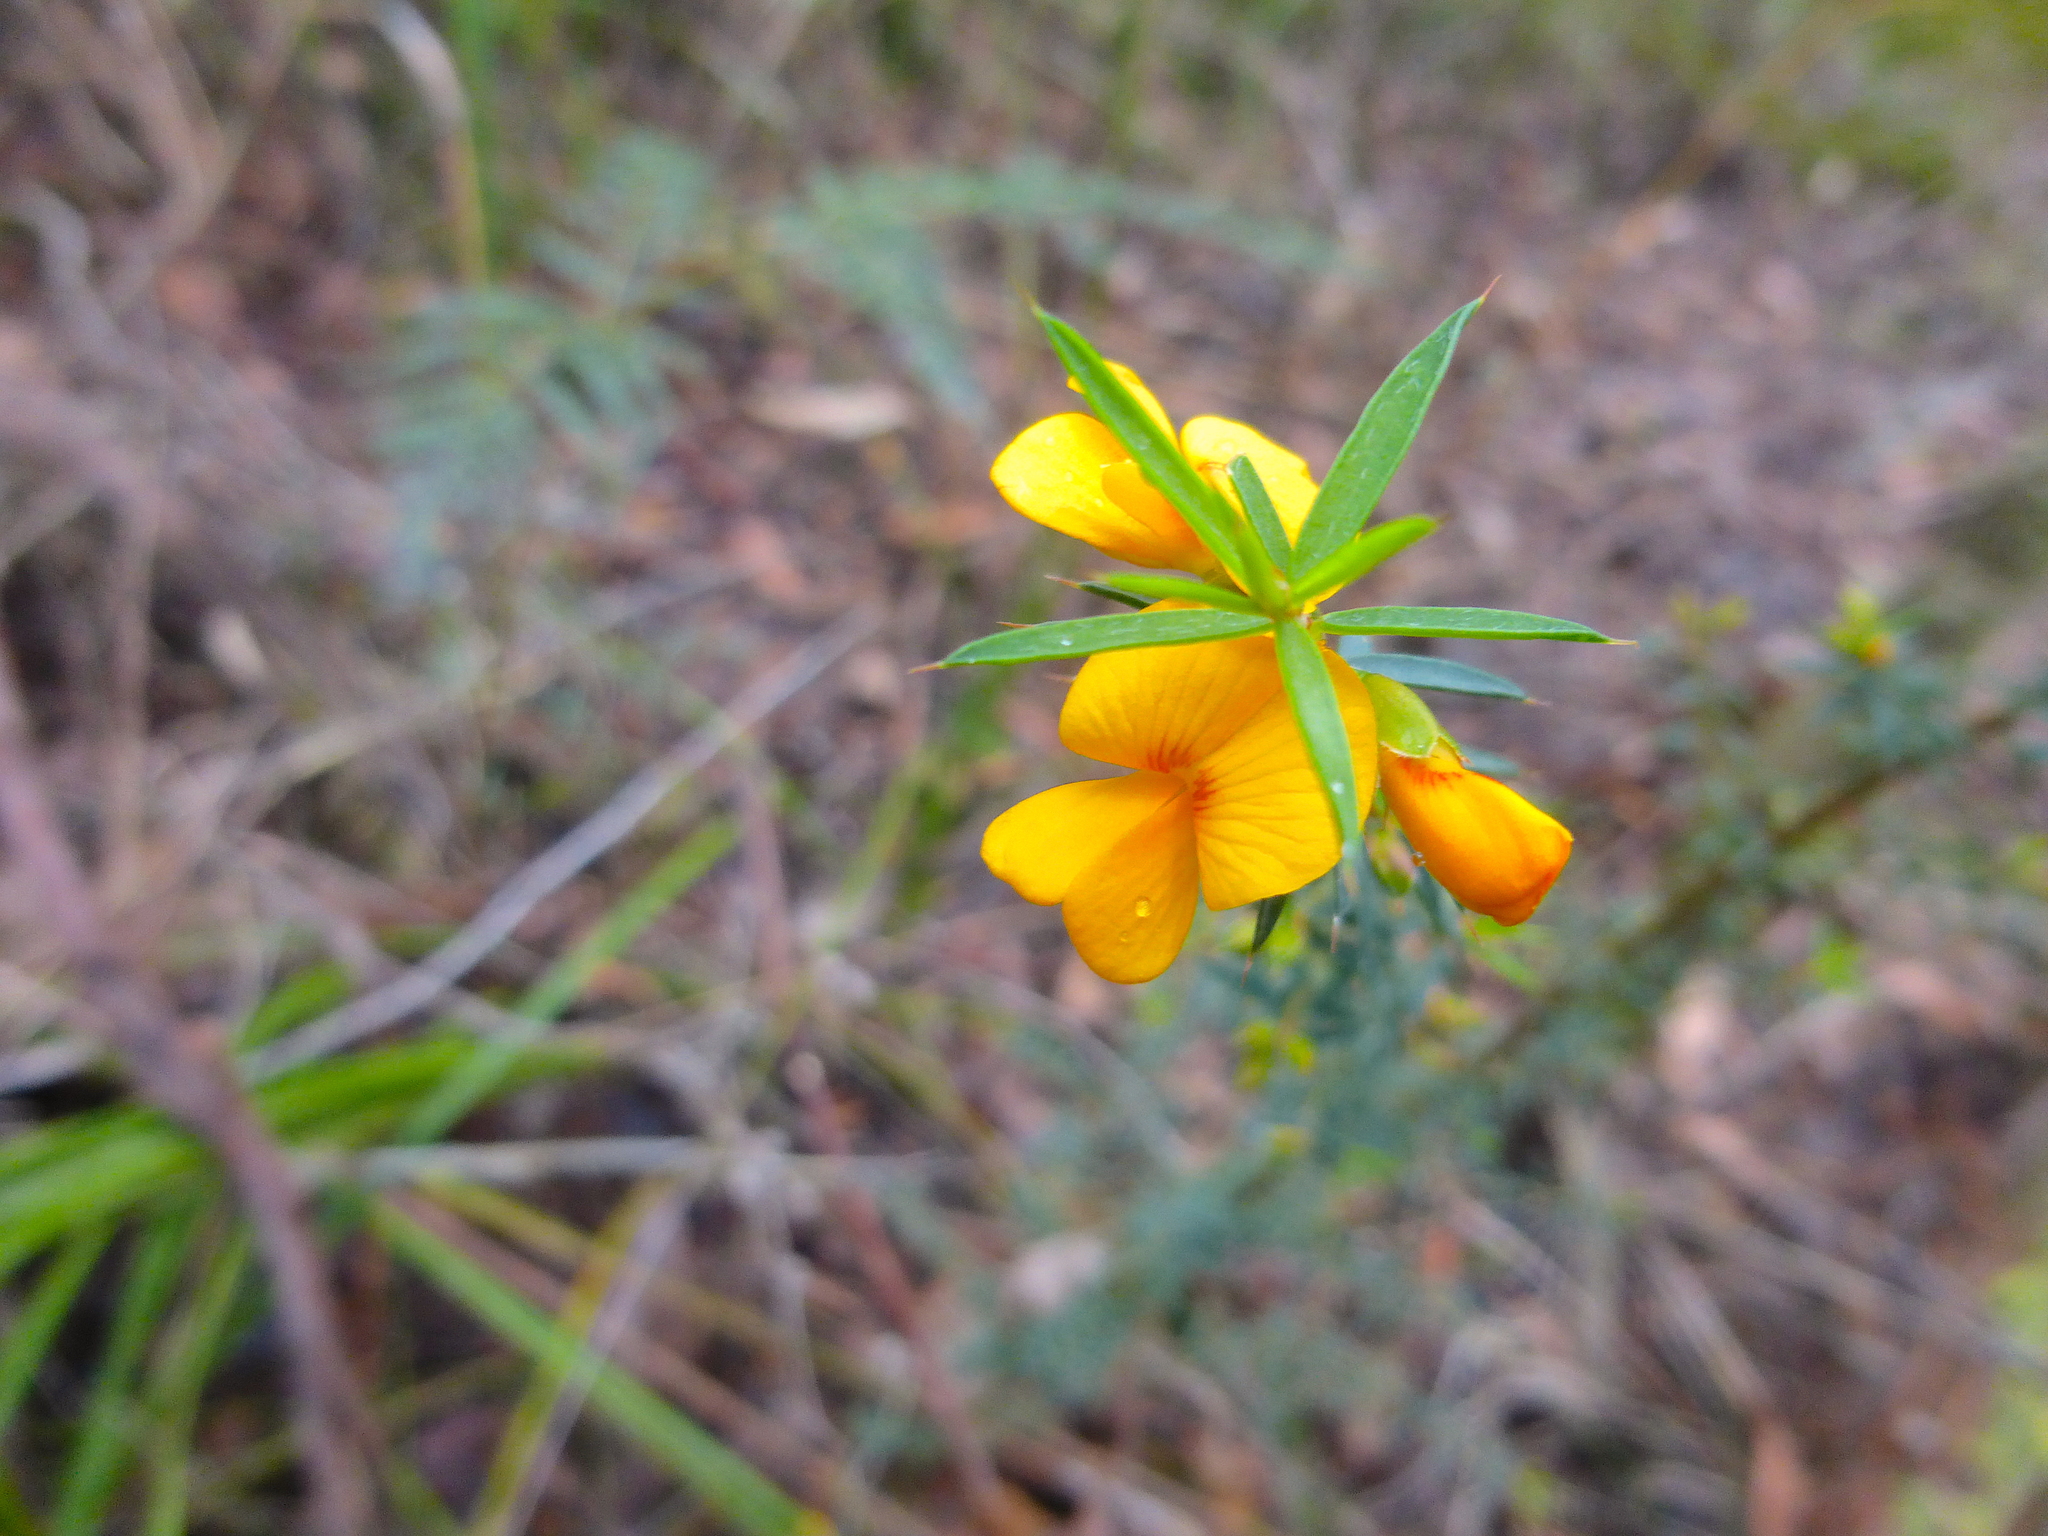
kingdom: Plantae
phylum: Tracheophyta
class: Magnoliopsida
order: Fabales
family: Fabaceae
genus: Pultenaea
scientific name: Pultenaea juniperina
